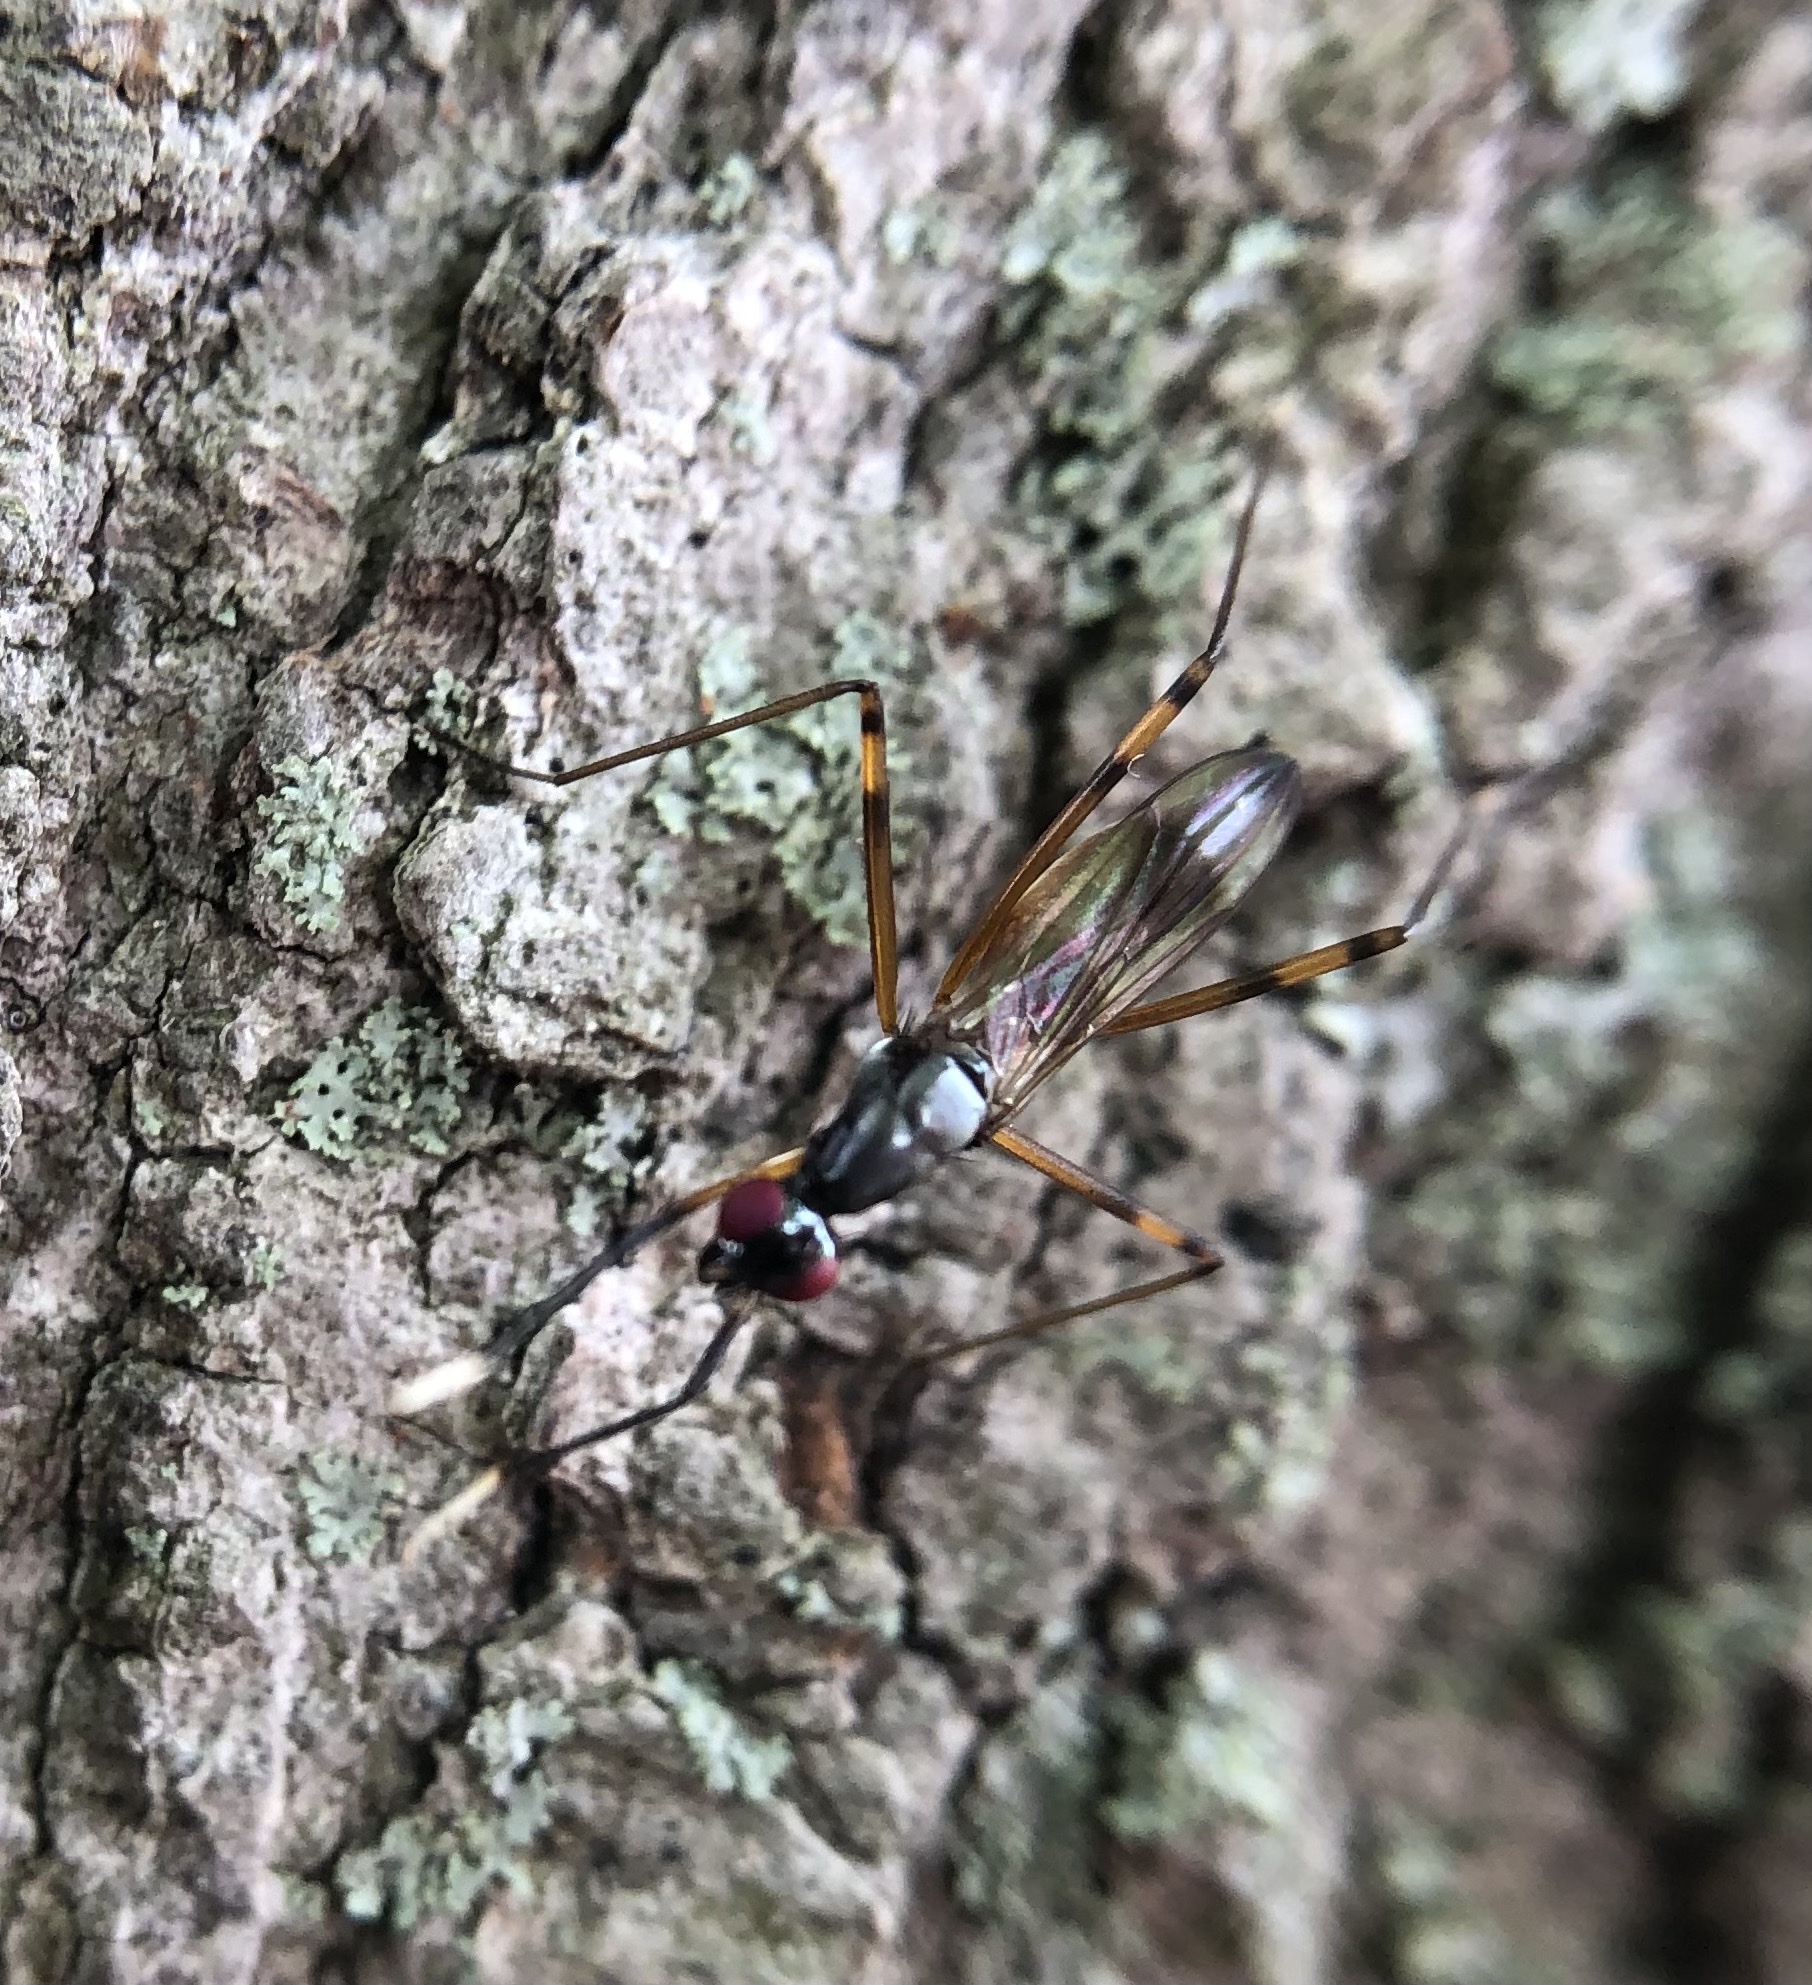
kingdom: Animalia
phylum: Arthropoda
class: Insecta
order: Diptera
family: Micropezidae
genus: Rainieria
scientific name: Rainieria antennaepes
